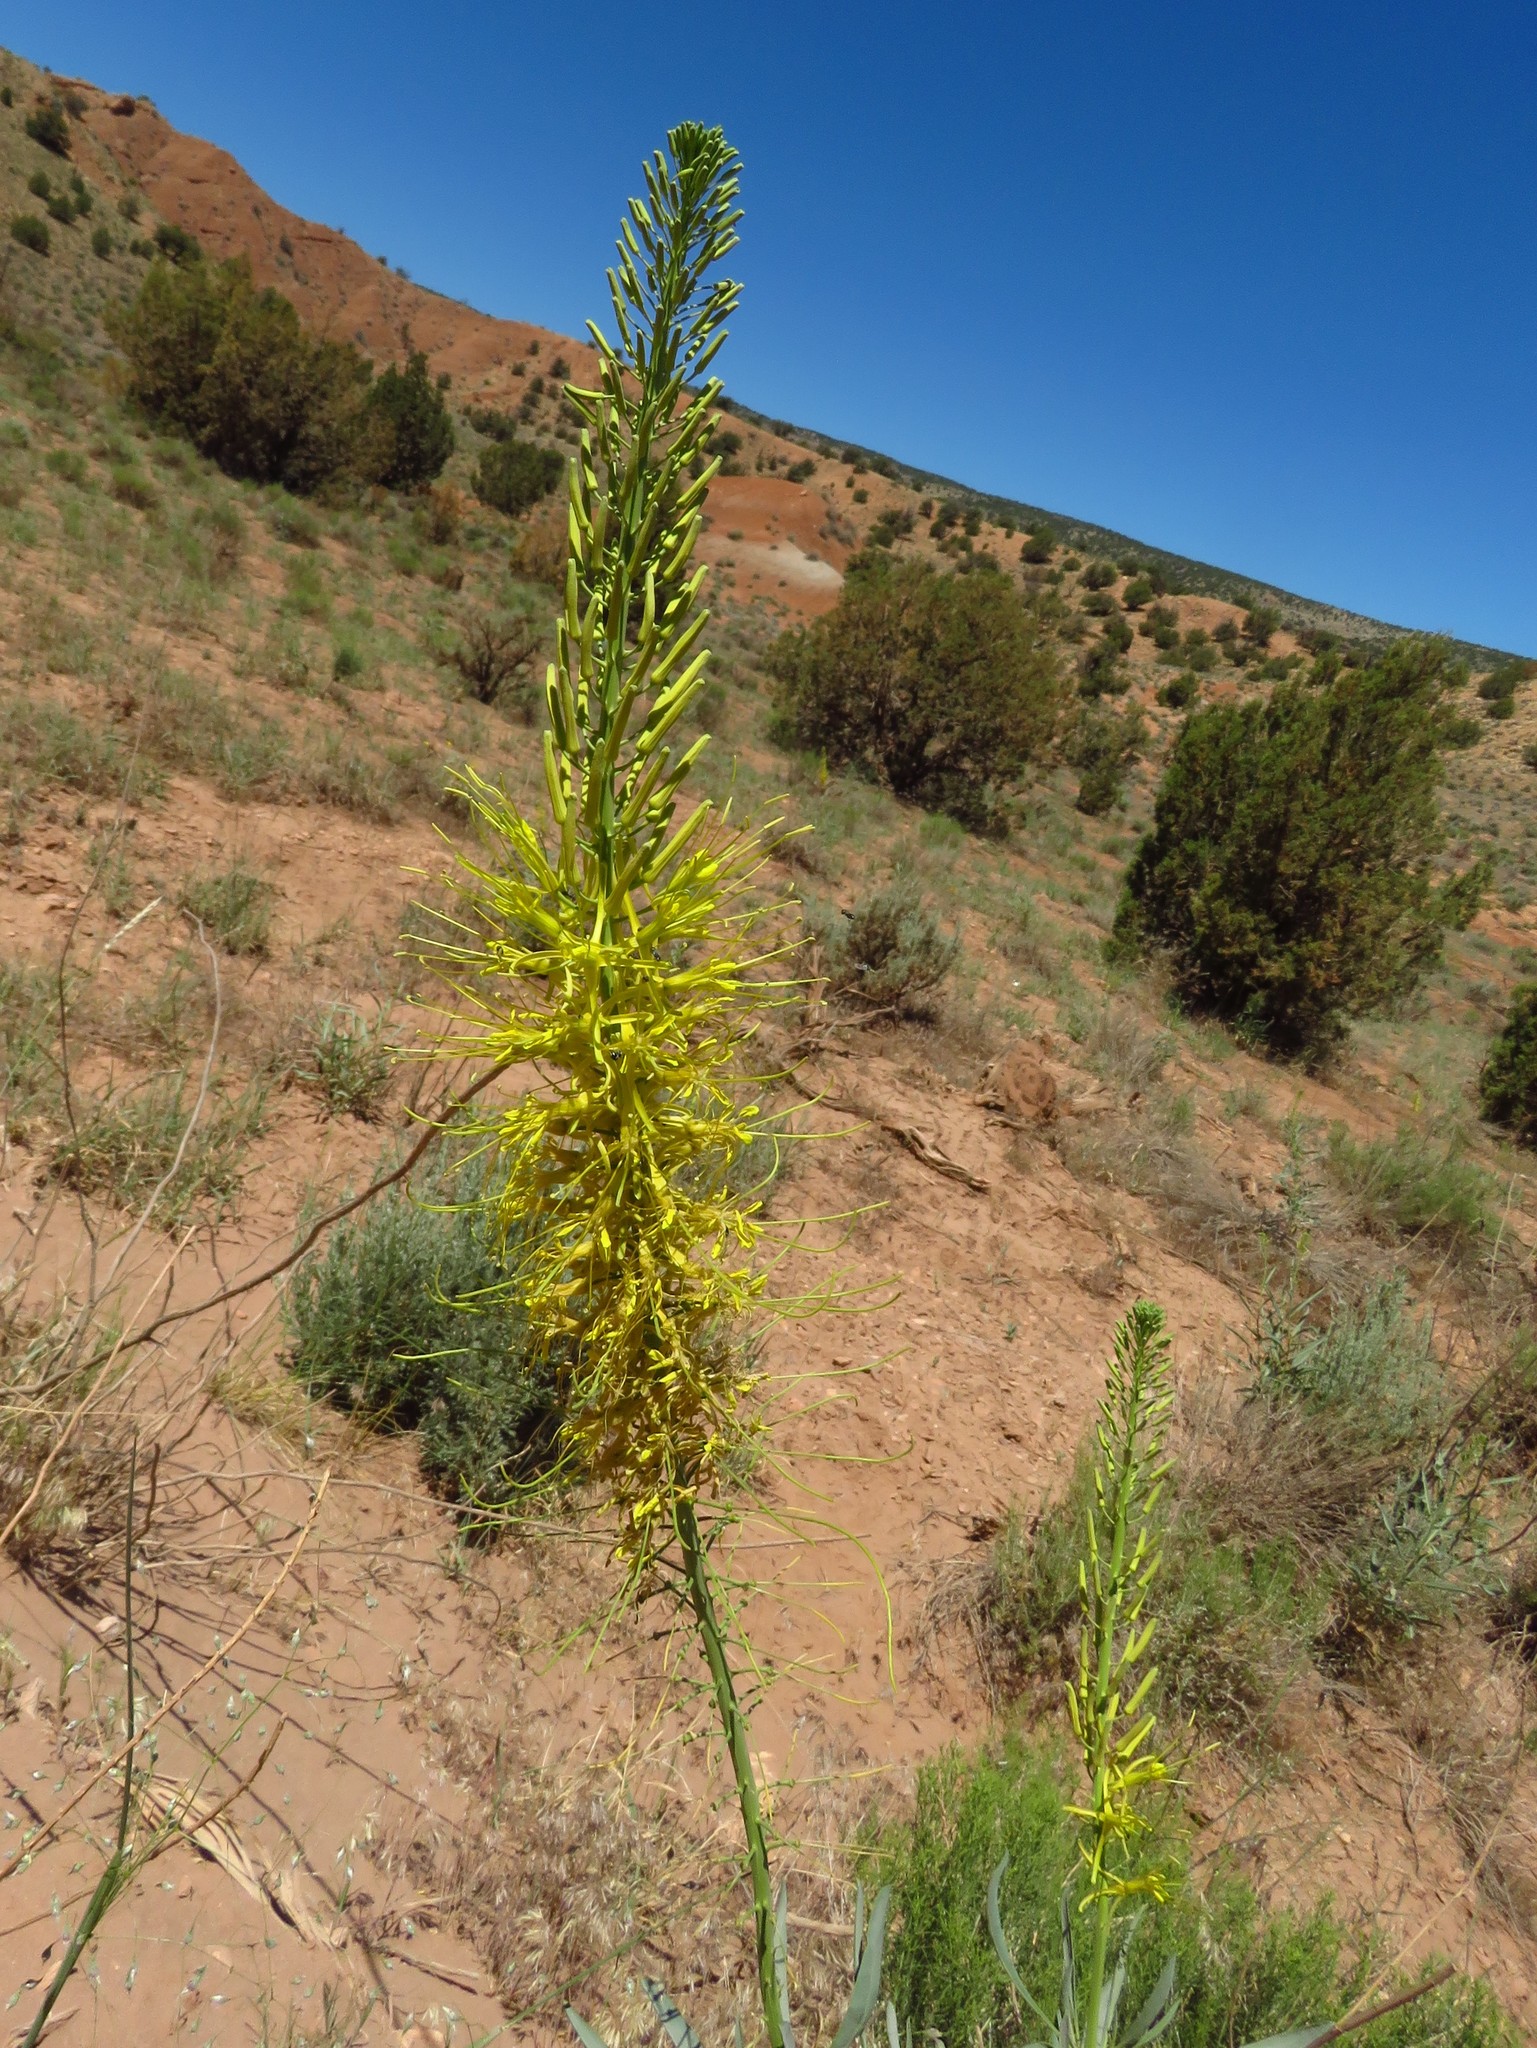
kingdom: Plantae
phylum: Tracheophyta
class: Magnoliopsida
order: Brassicales
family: Brassicaceae
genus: Stanleya
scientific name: Stanleya pinnata
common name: Prince's-plume
